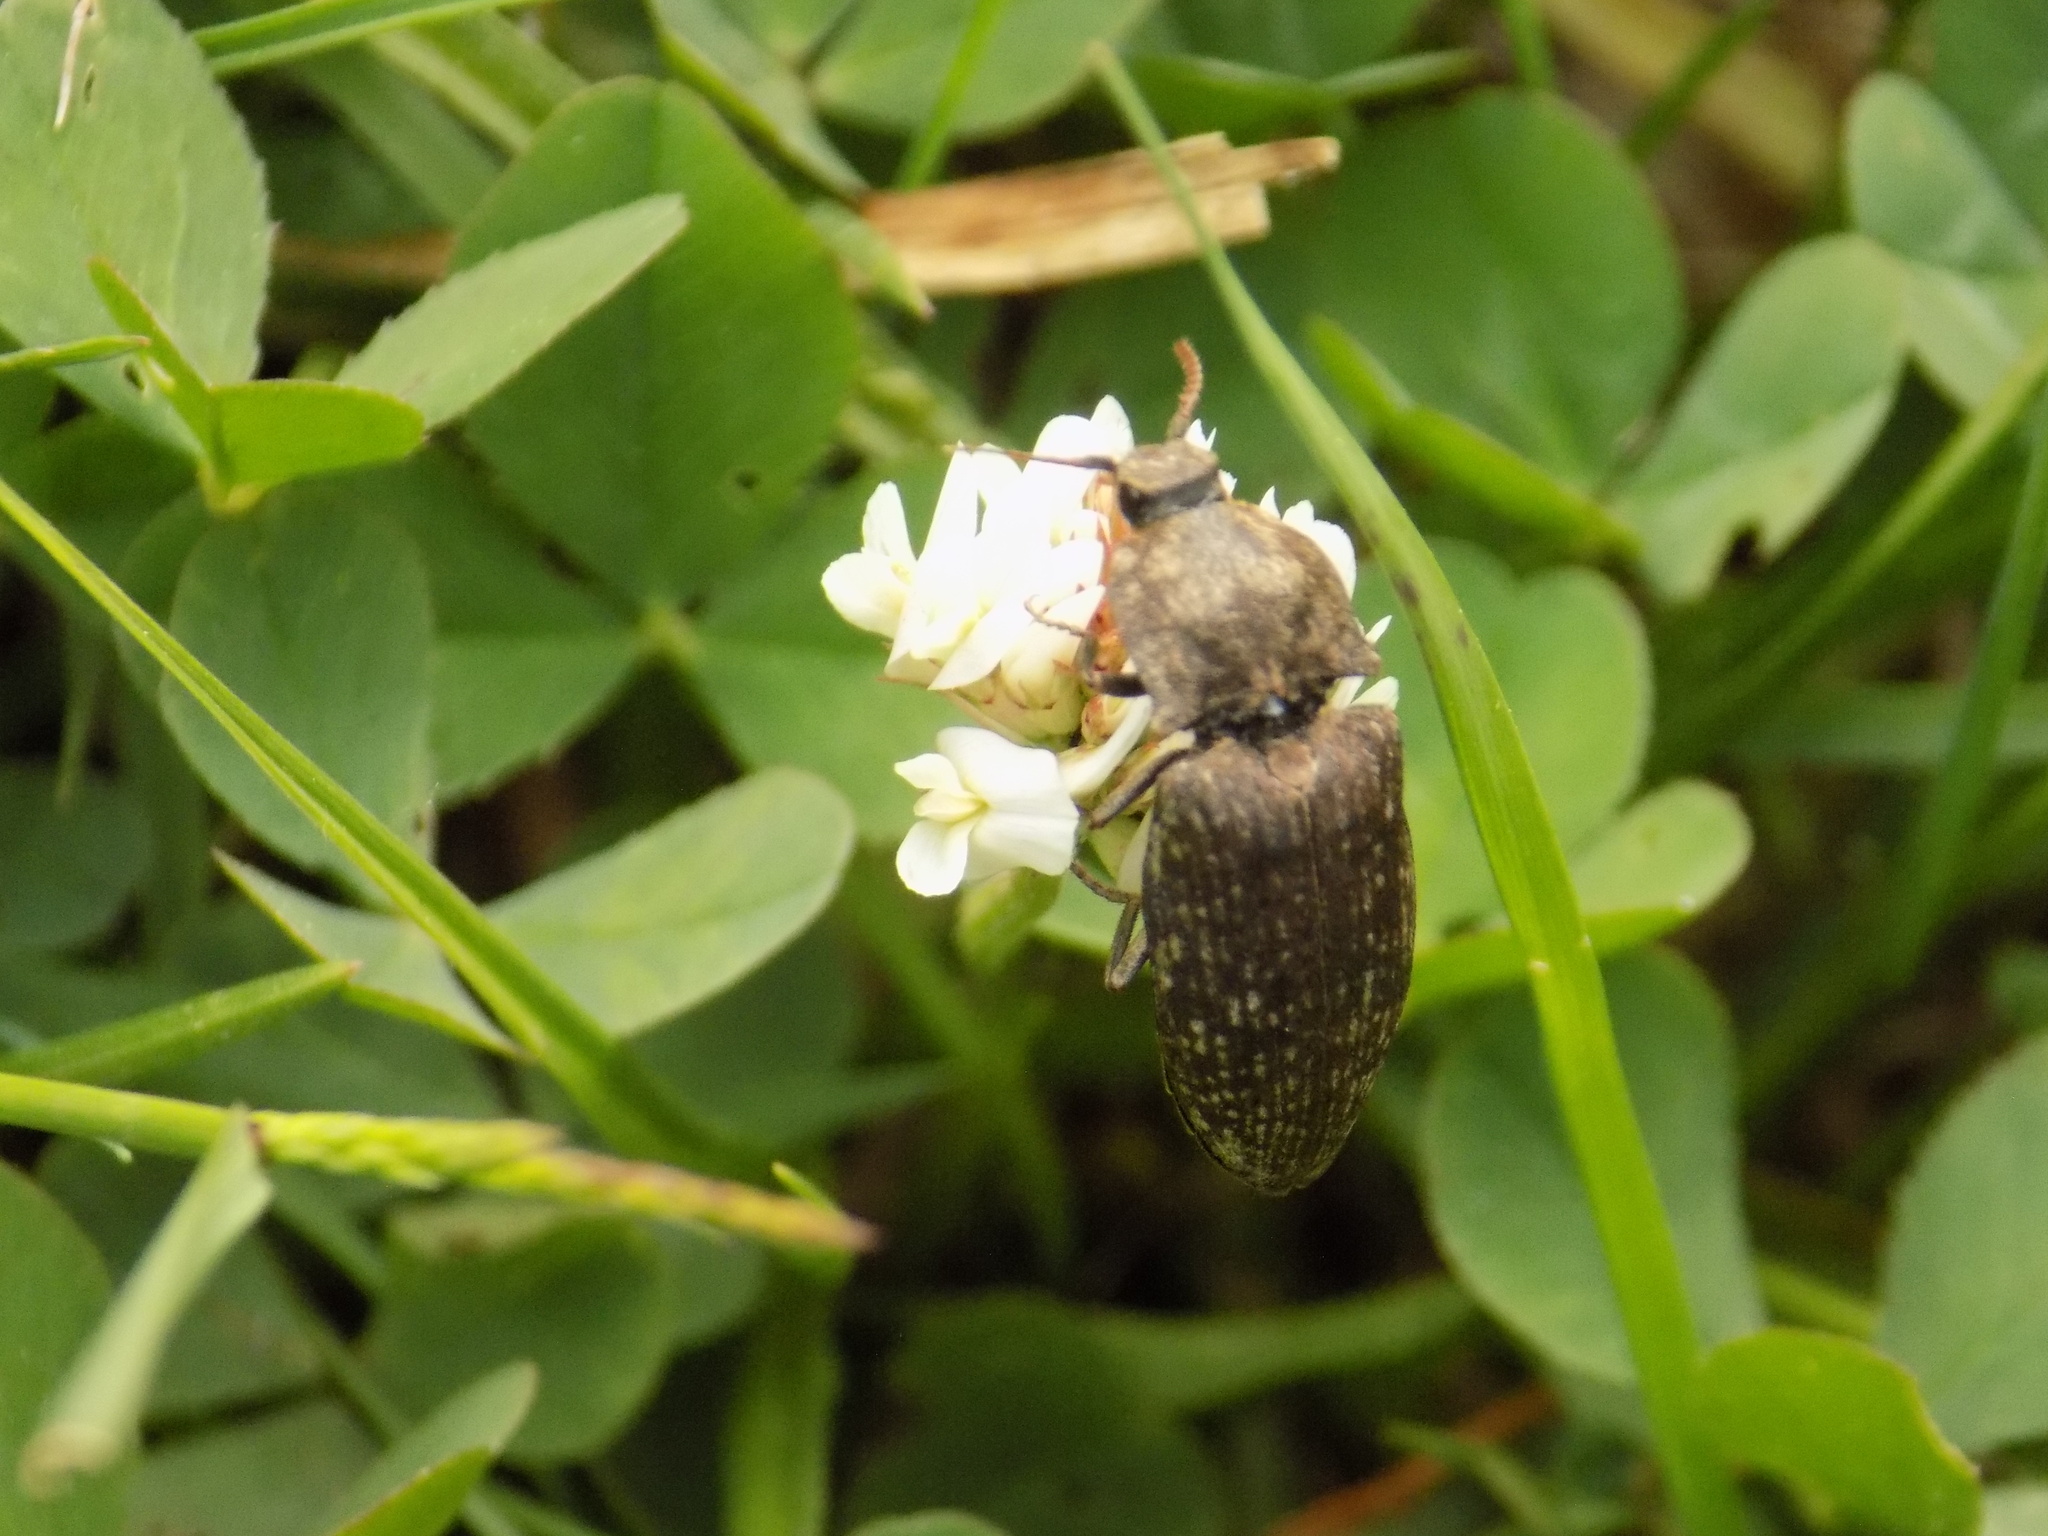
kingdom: Animalia
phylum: Arthropoda
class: Insecta
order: Coleoptera
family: Elateridae
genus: Agrypnus
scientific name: Agrypnus murinus
